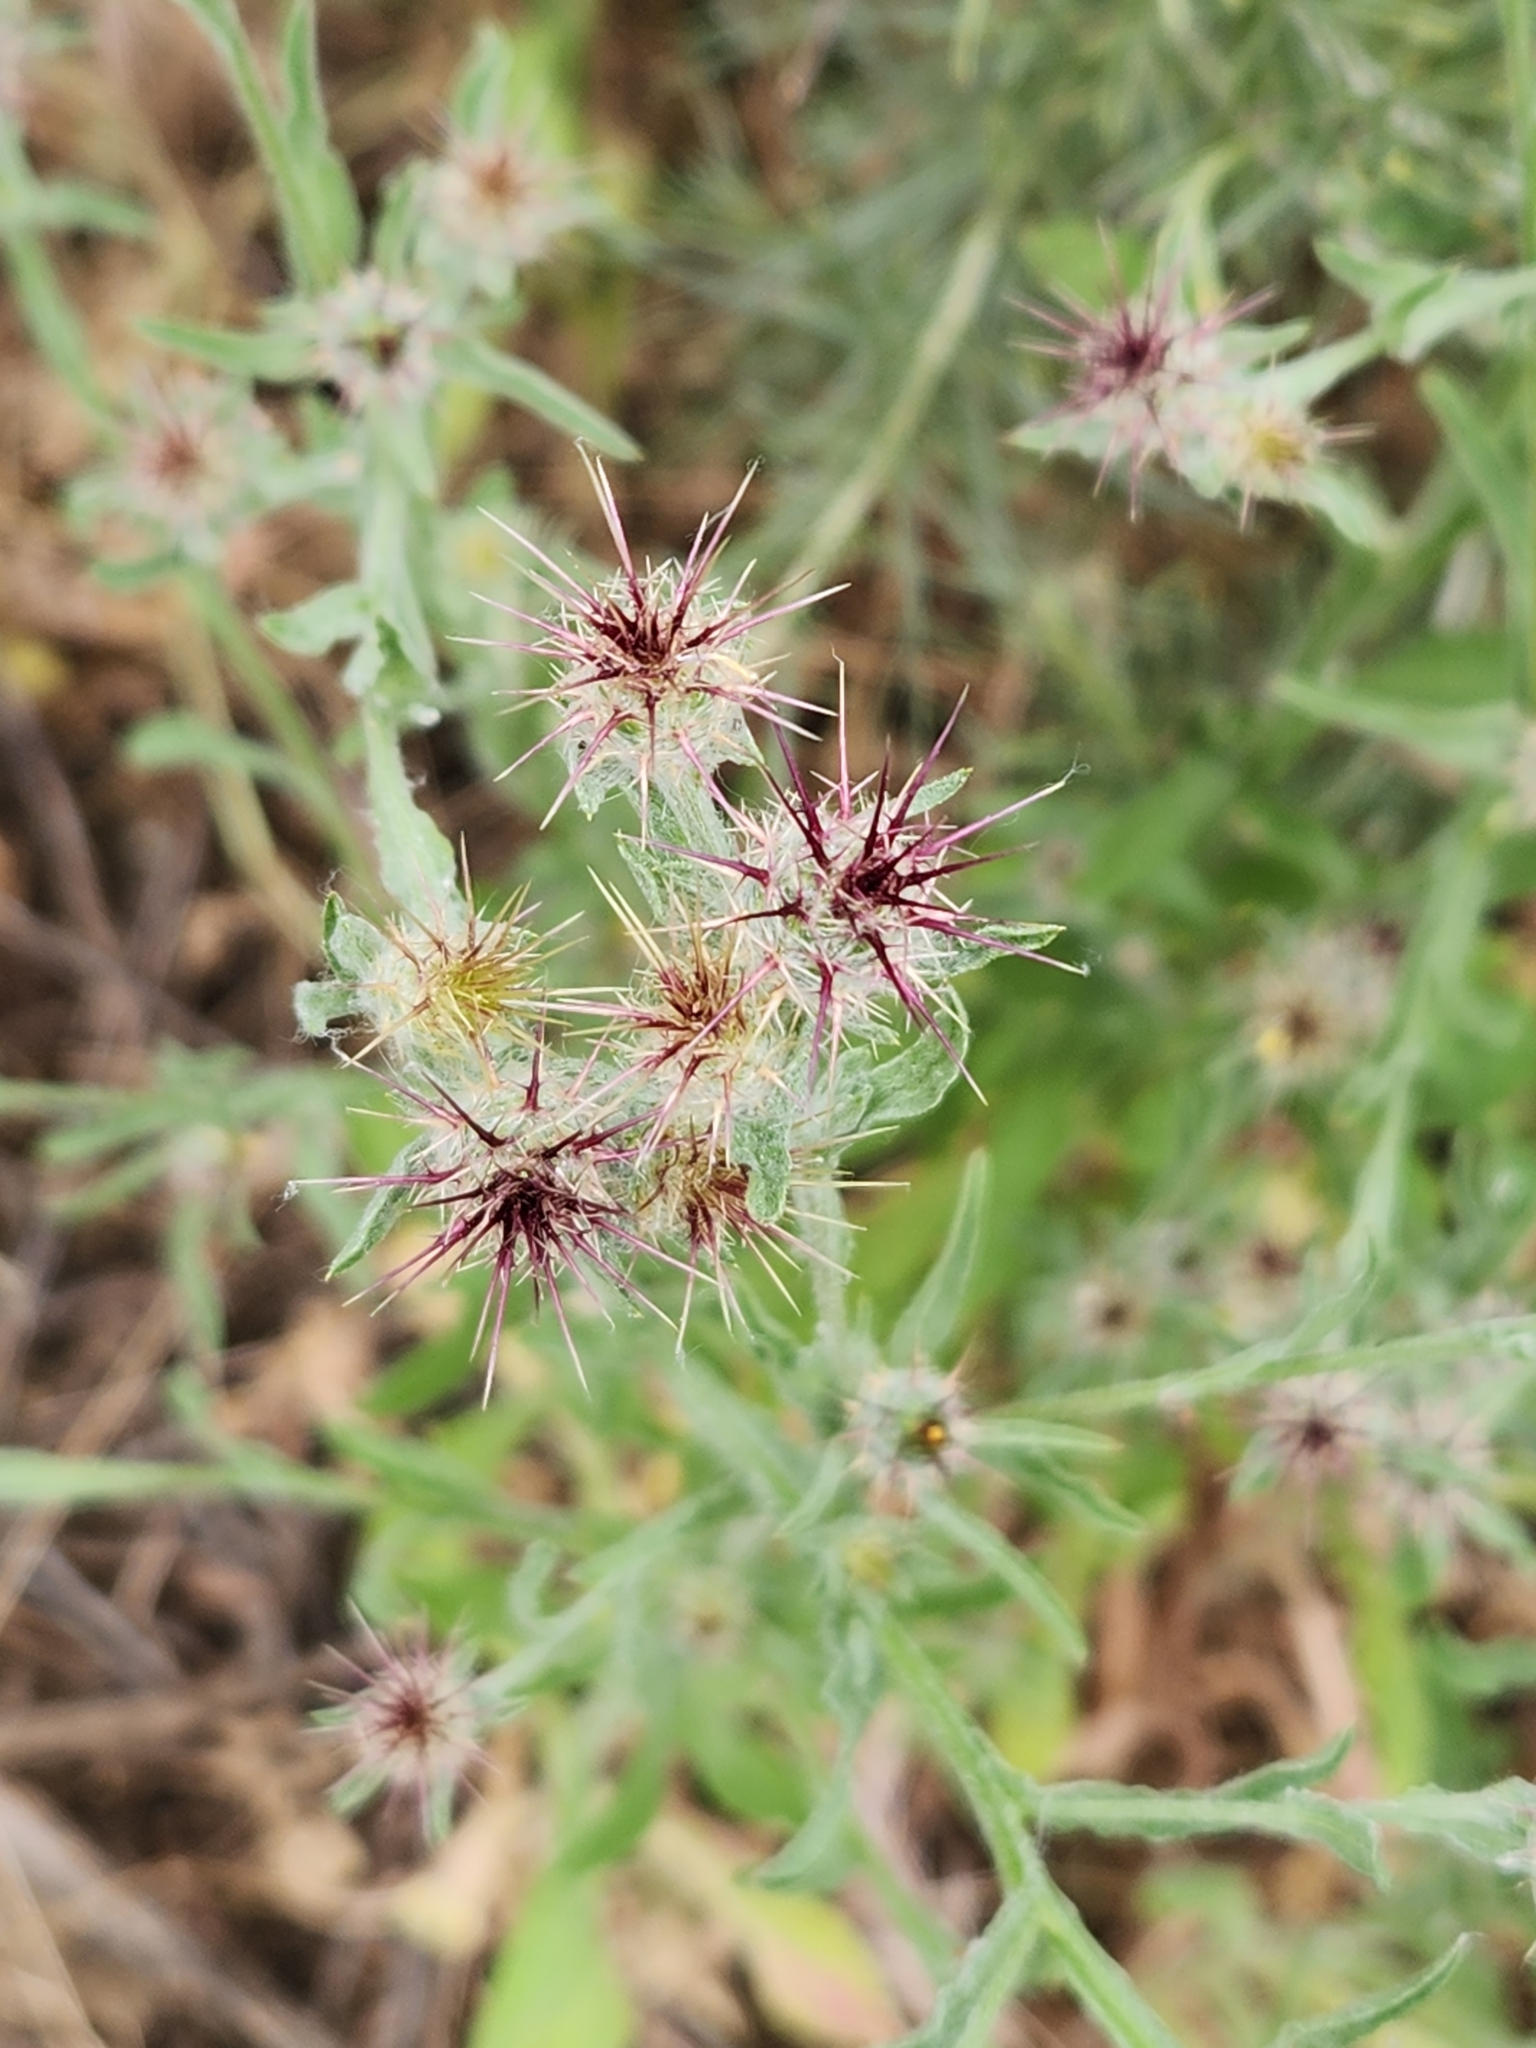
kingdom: Plantae
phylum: Tracheophyta
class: Magnoliopsida
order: Asterales
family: Asteraceae
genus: Centaurea
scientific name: Centaurea melitensis
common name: Maltese star-thistle
